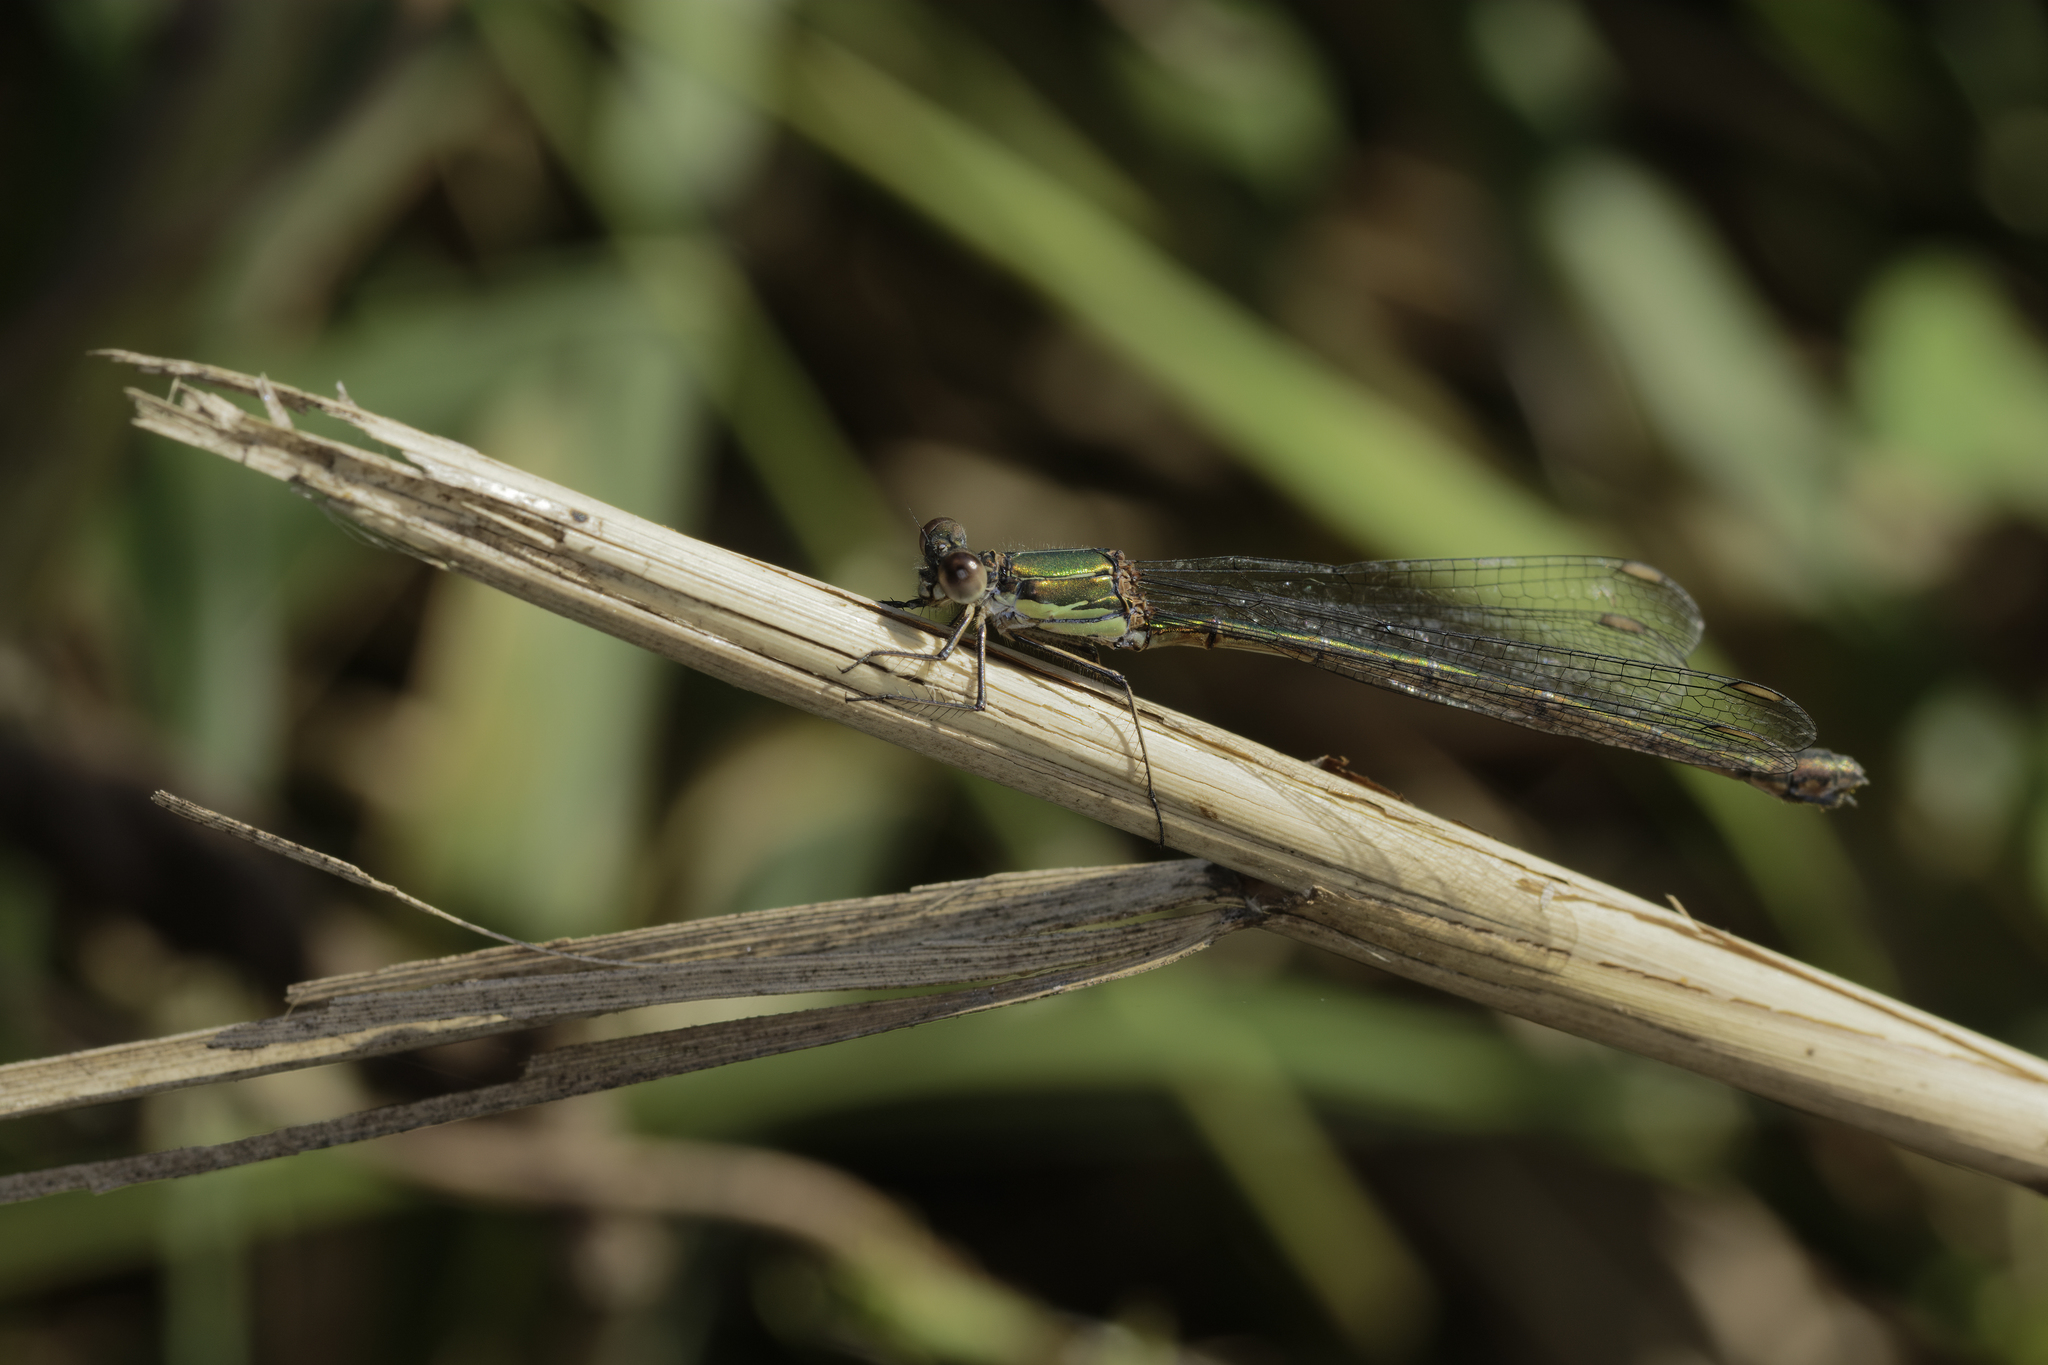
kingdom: Animalia
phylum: Arthropoda
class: Insecta
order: Odonata
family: Lestidae
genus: Chalcolestes
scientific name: Chalcolestes viridis
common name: Green emerald damselfly
